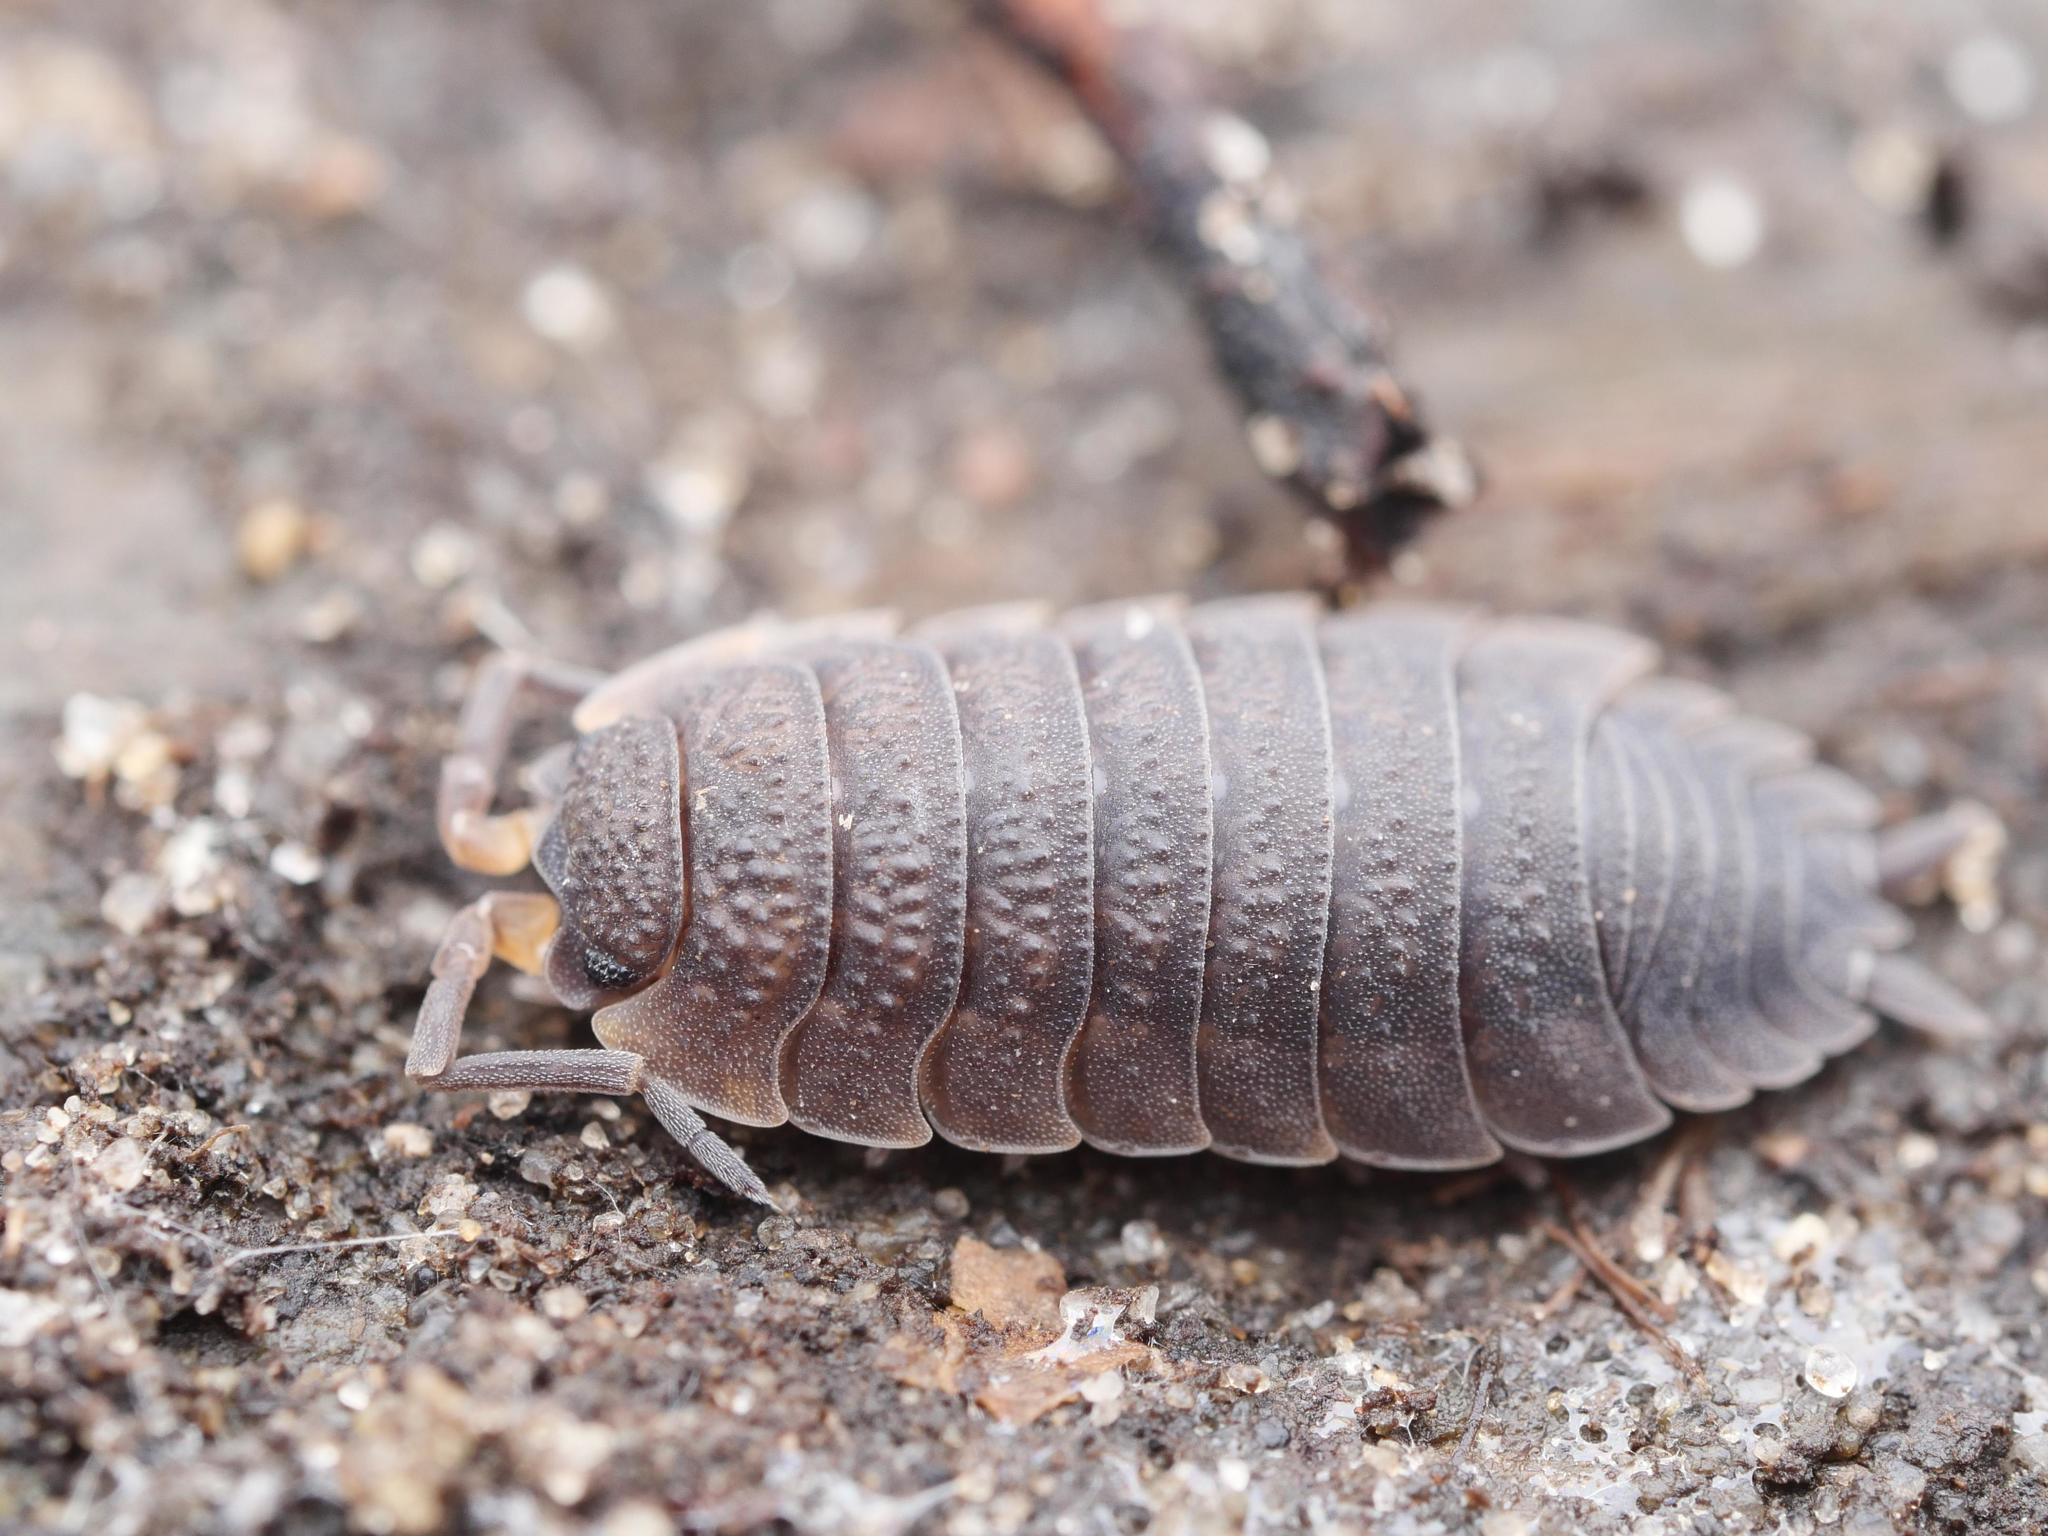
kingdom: Animalia
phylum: Arthropoda
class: Malacostraca
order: Isopoda
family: Porcellionidae
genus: Porcellio
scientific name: Porcellio scaber
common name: Common rough woodlouse
